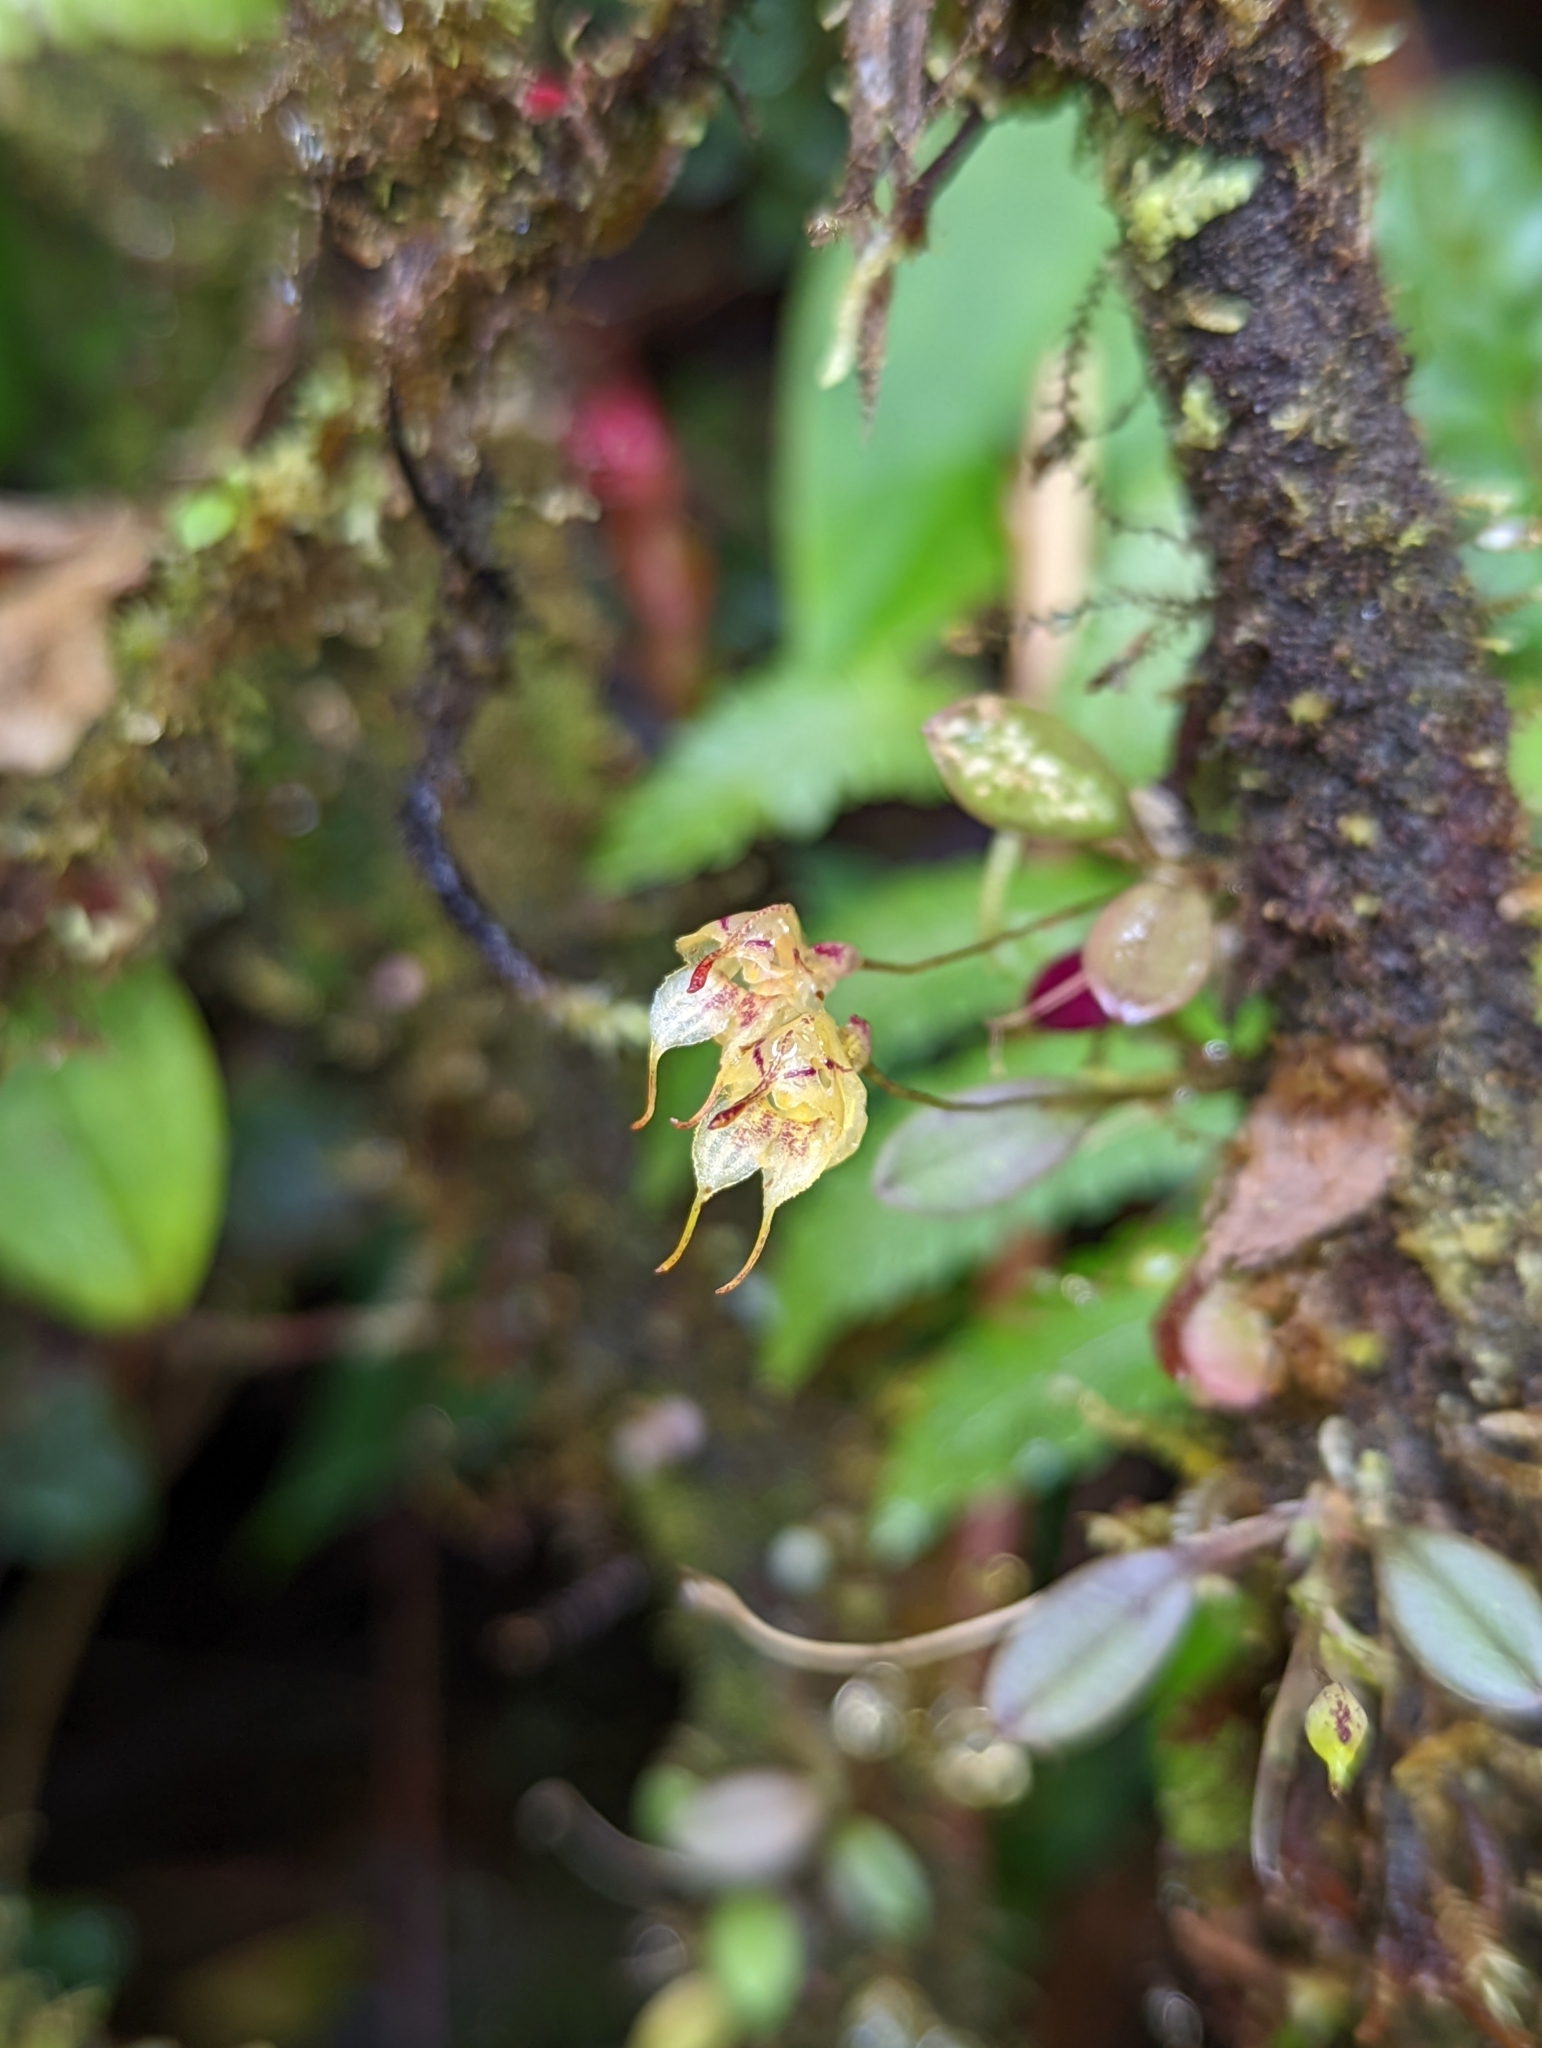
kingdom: Plantae
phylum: Tracheophyta
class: Liliopsida
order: Asparagales
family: Orchidaceae
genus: Pleurothallis
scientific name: Pleurothallis silverstonei
